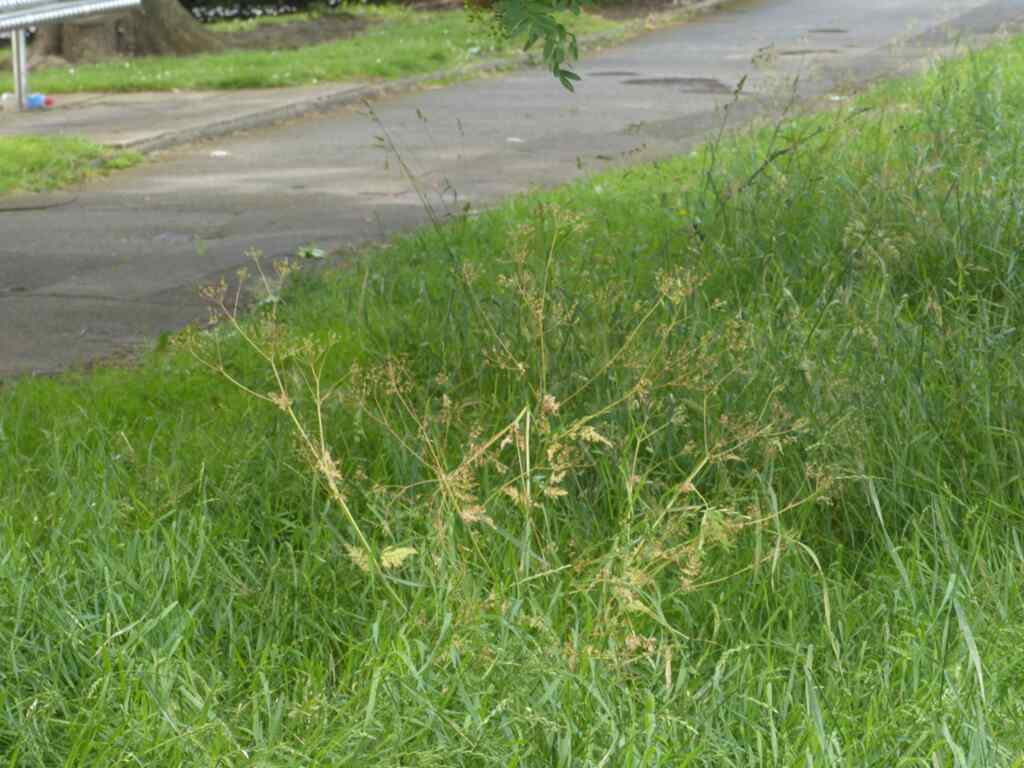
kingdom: Plantae
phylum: Tracheophyta
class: Magnoliopsida
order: Apiales
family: Apiaceae
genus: Anthriscus
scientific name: Anthriscus sylvestris
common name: Cow parsley
